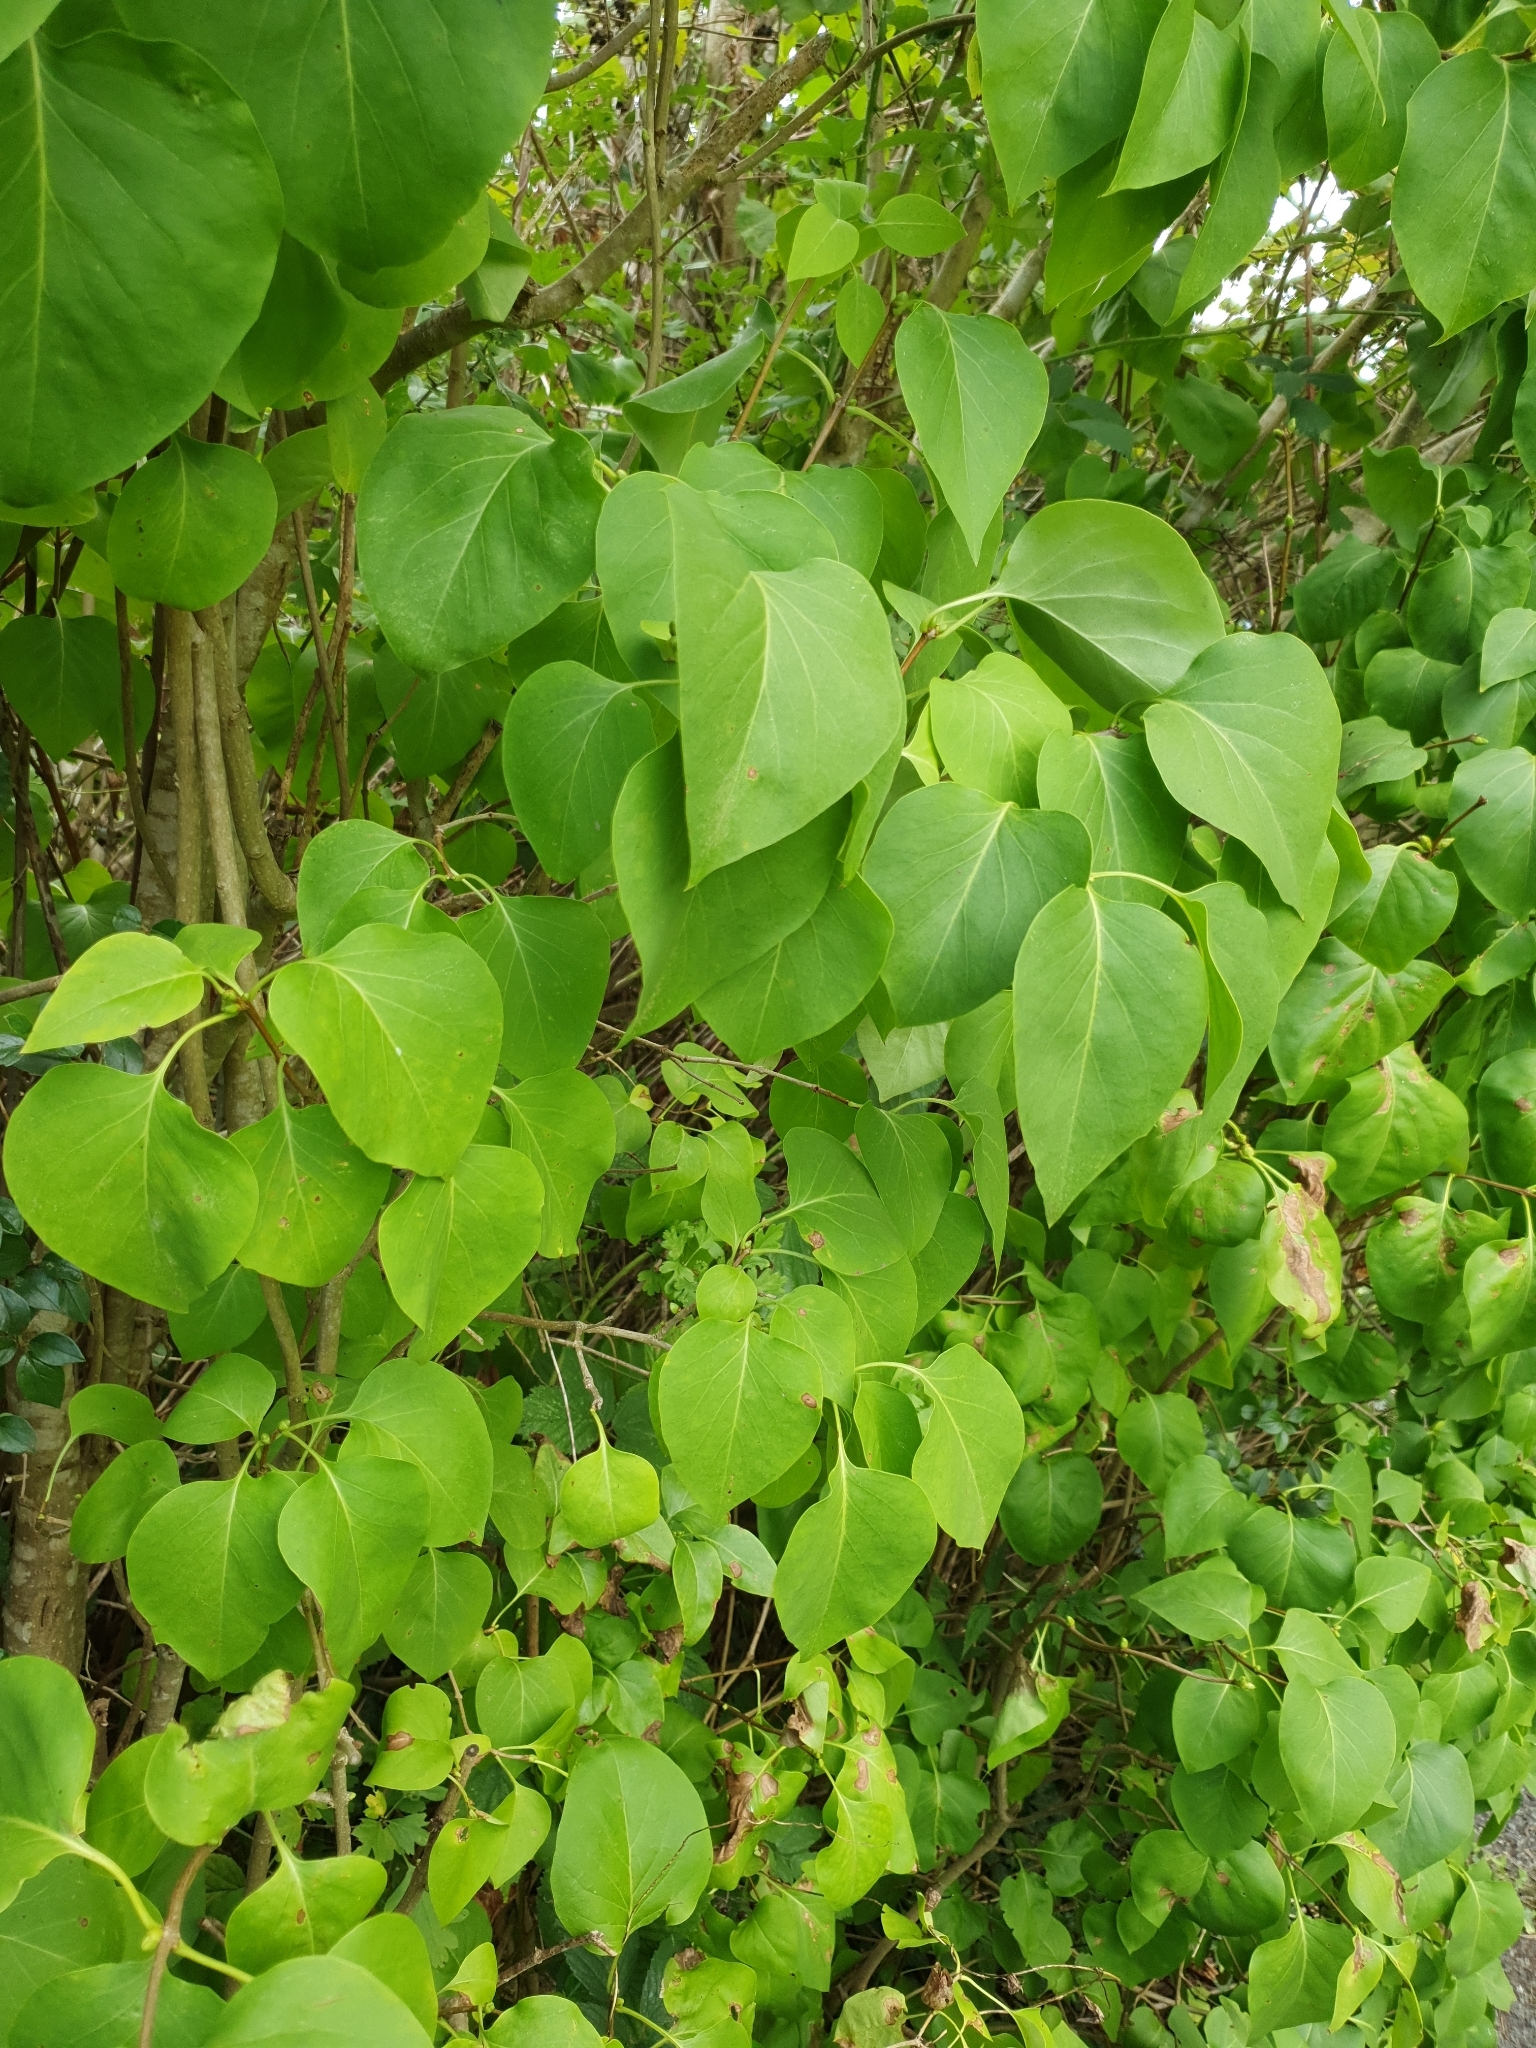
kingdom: Plantae
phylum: Tracheophyta
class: Magnoliopsida
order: Lamiales
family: Oleaceae
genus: Syringa
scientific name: Syringa vulgaris
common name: Common lilac
